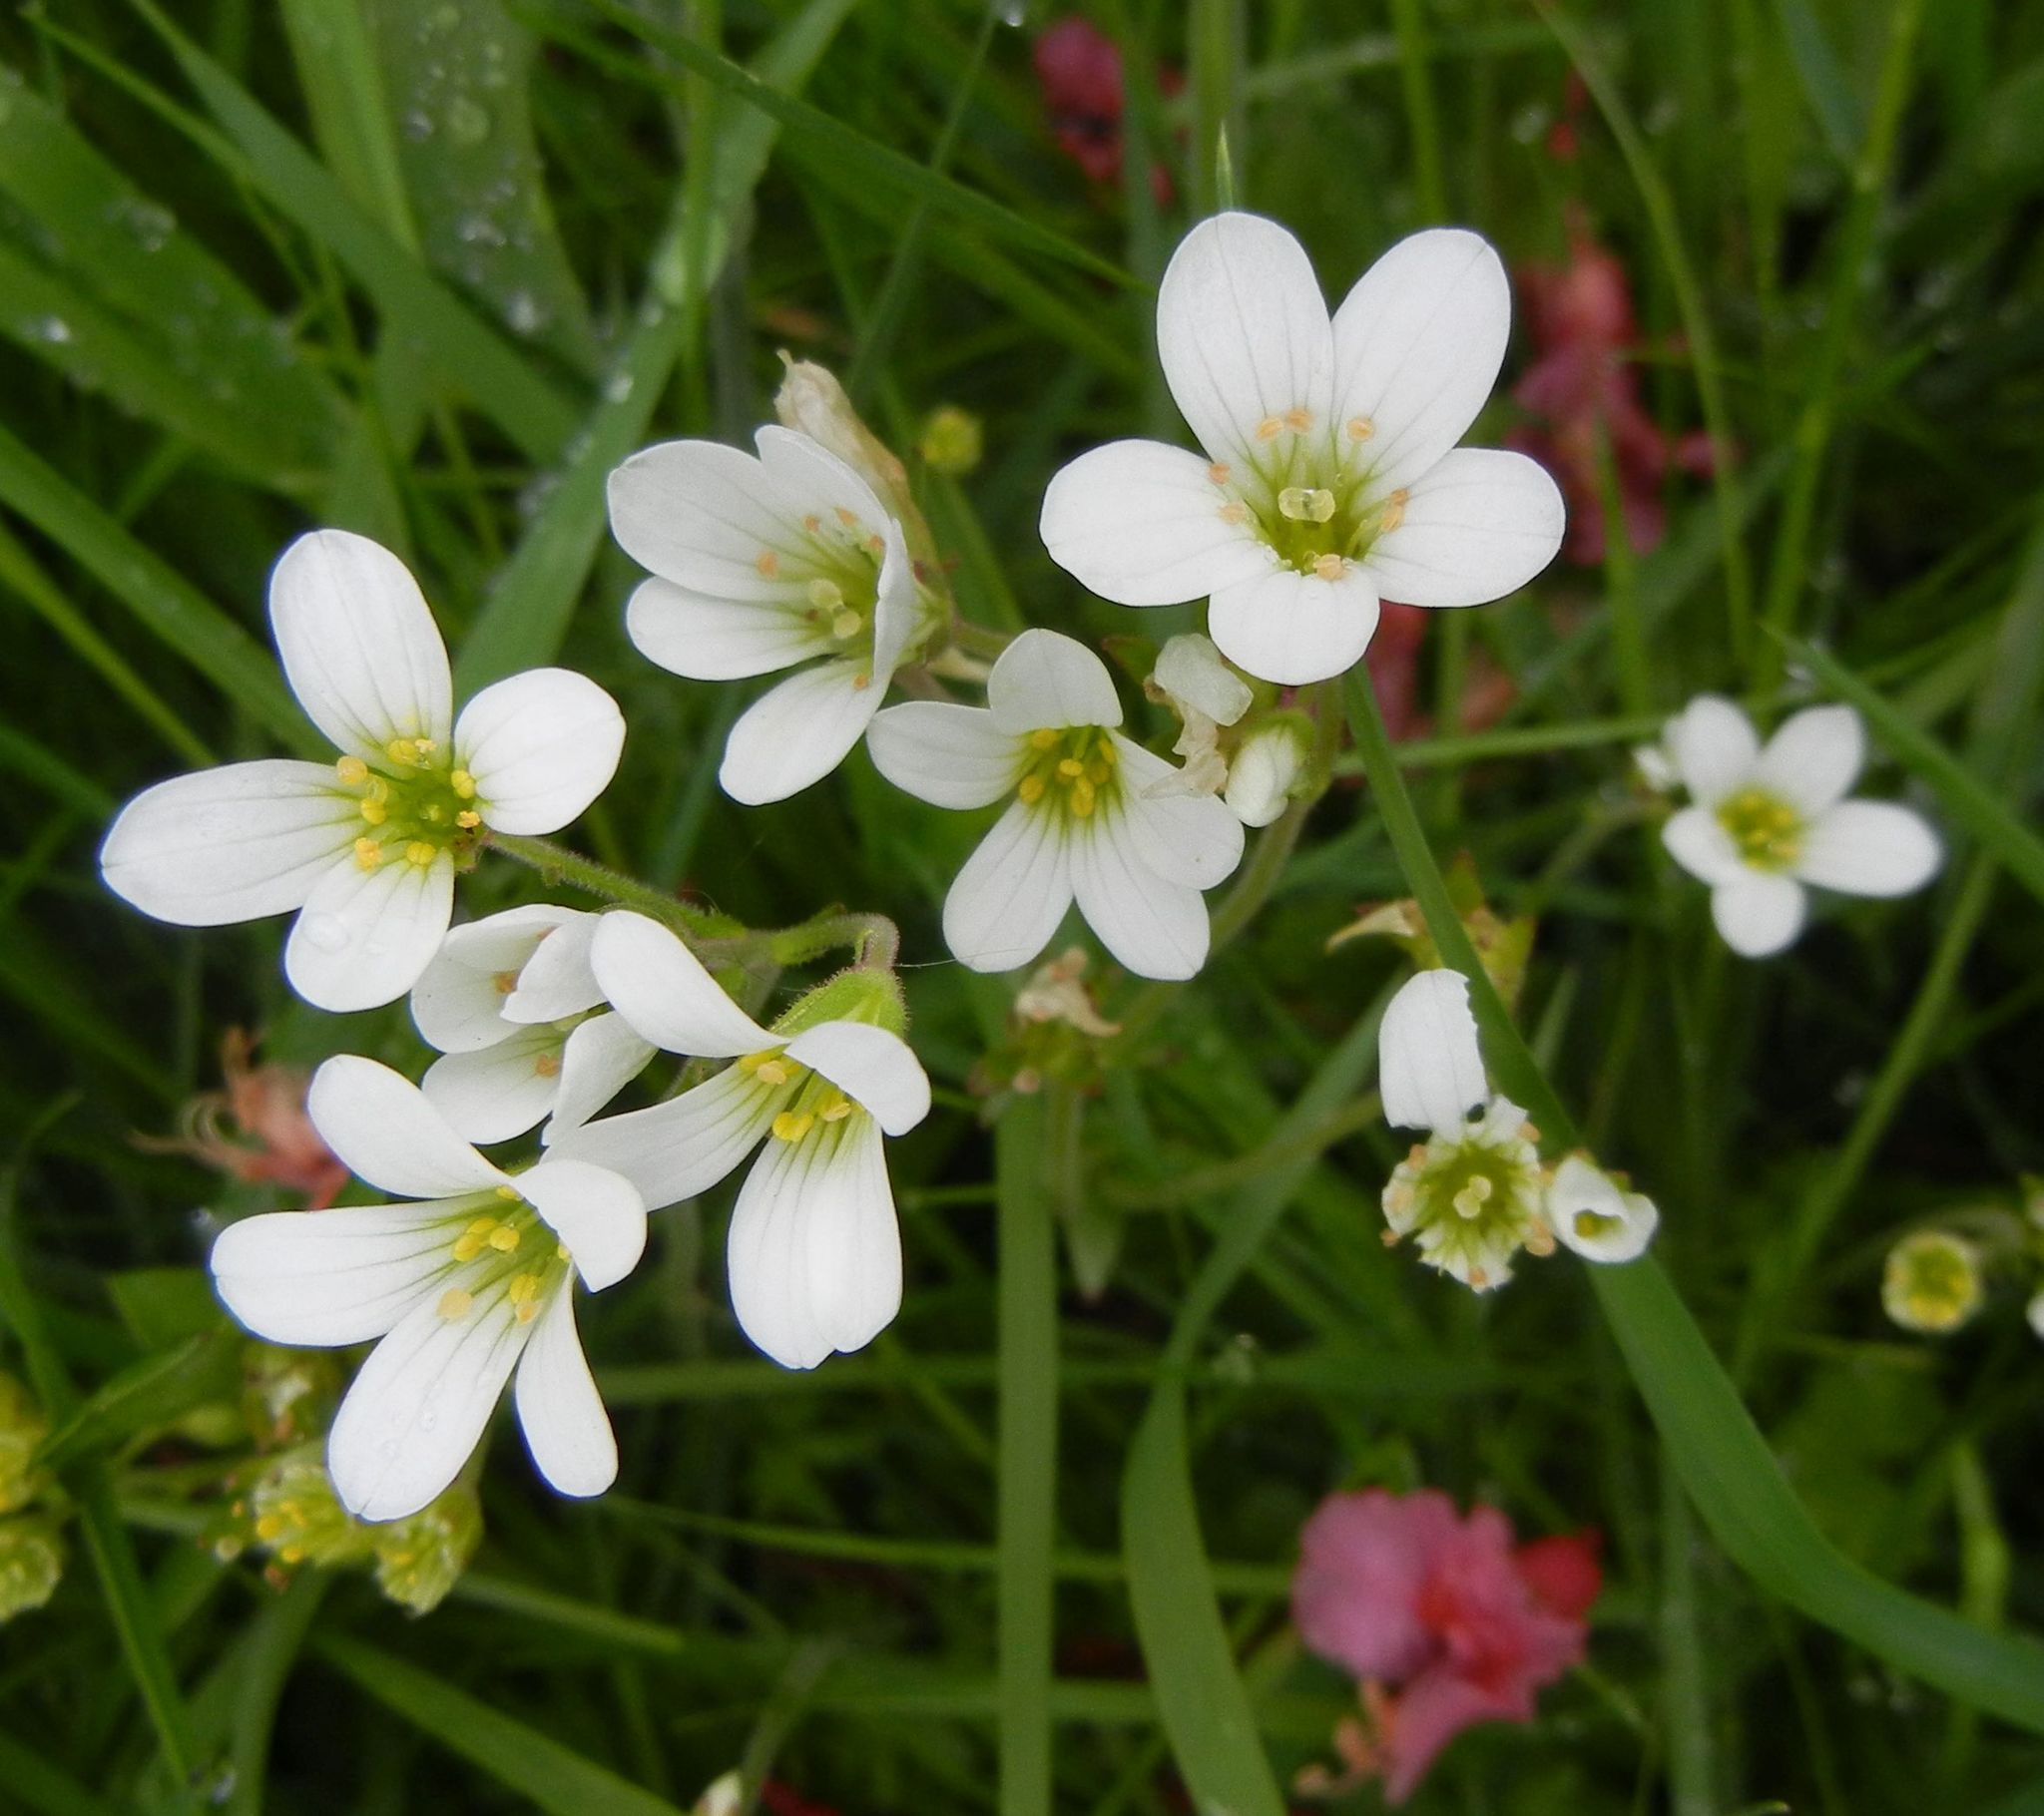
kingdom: Plantae
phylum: Tracheophyta
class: Magnoliopsida
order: Saxifragales
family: Saxifragaceae
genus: Saxifraga
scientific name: Saxifraga granulata
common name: Meadow saxifrage
